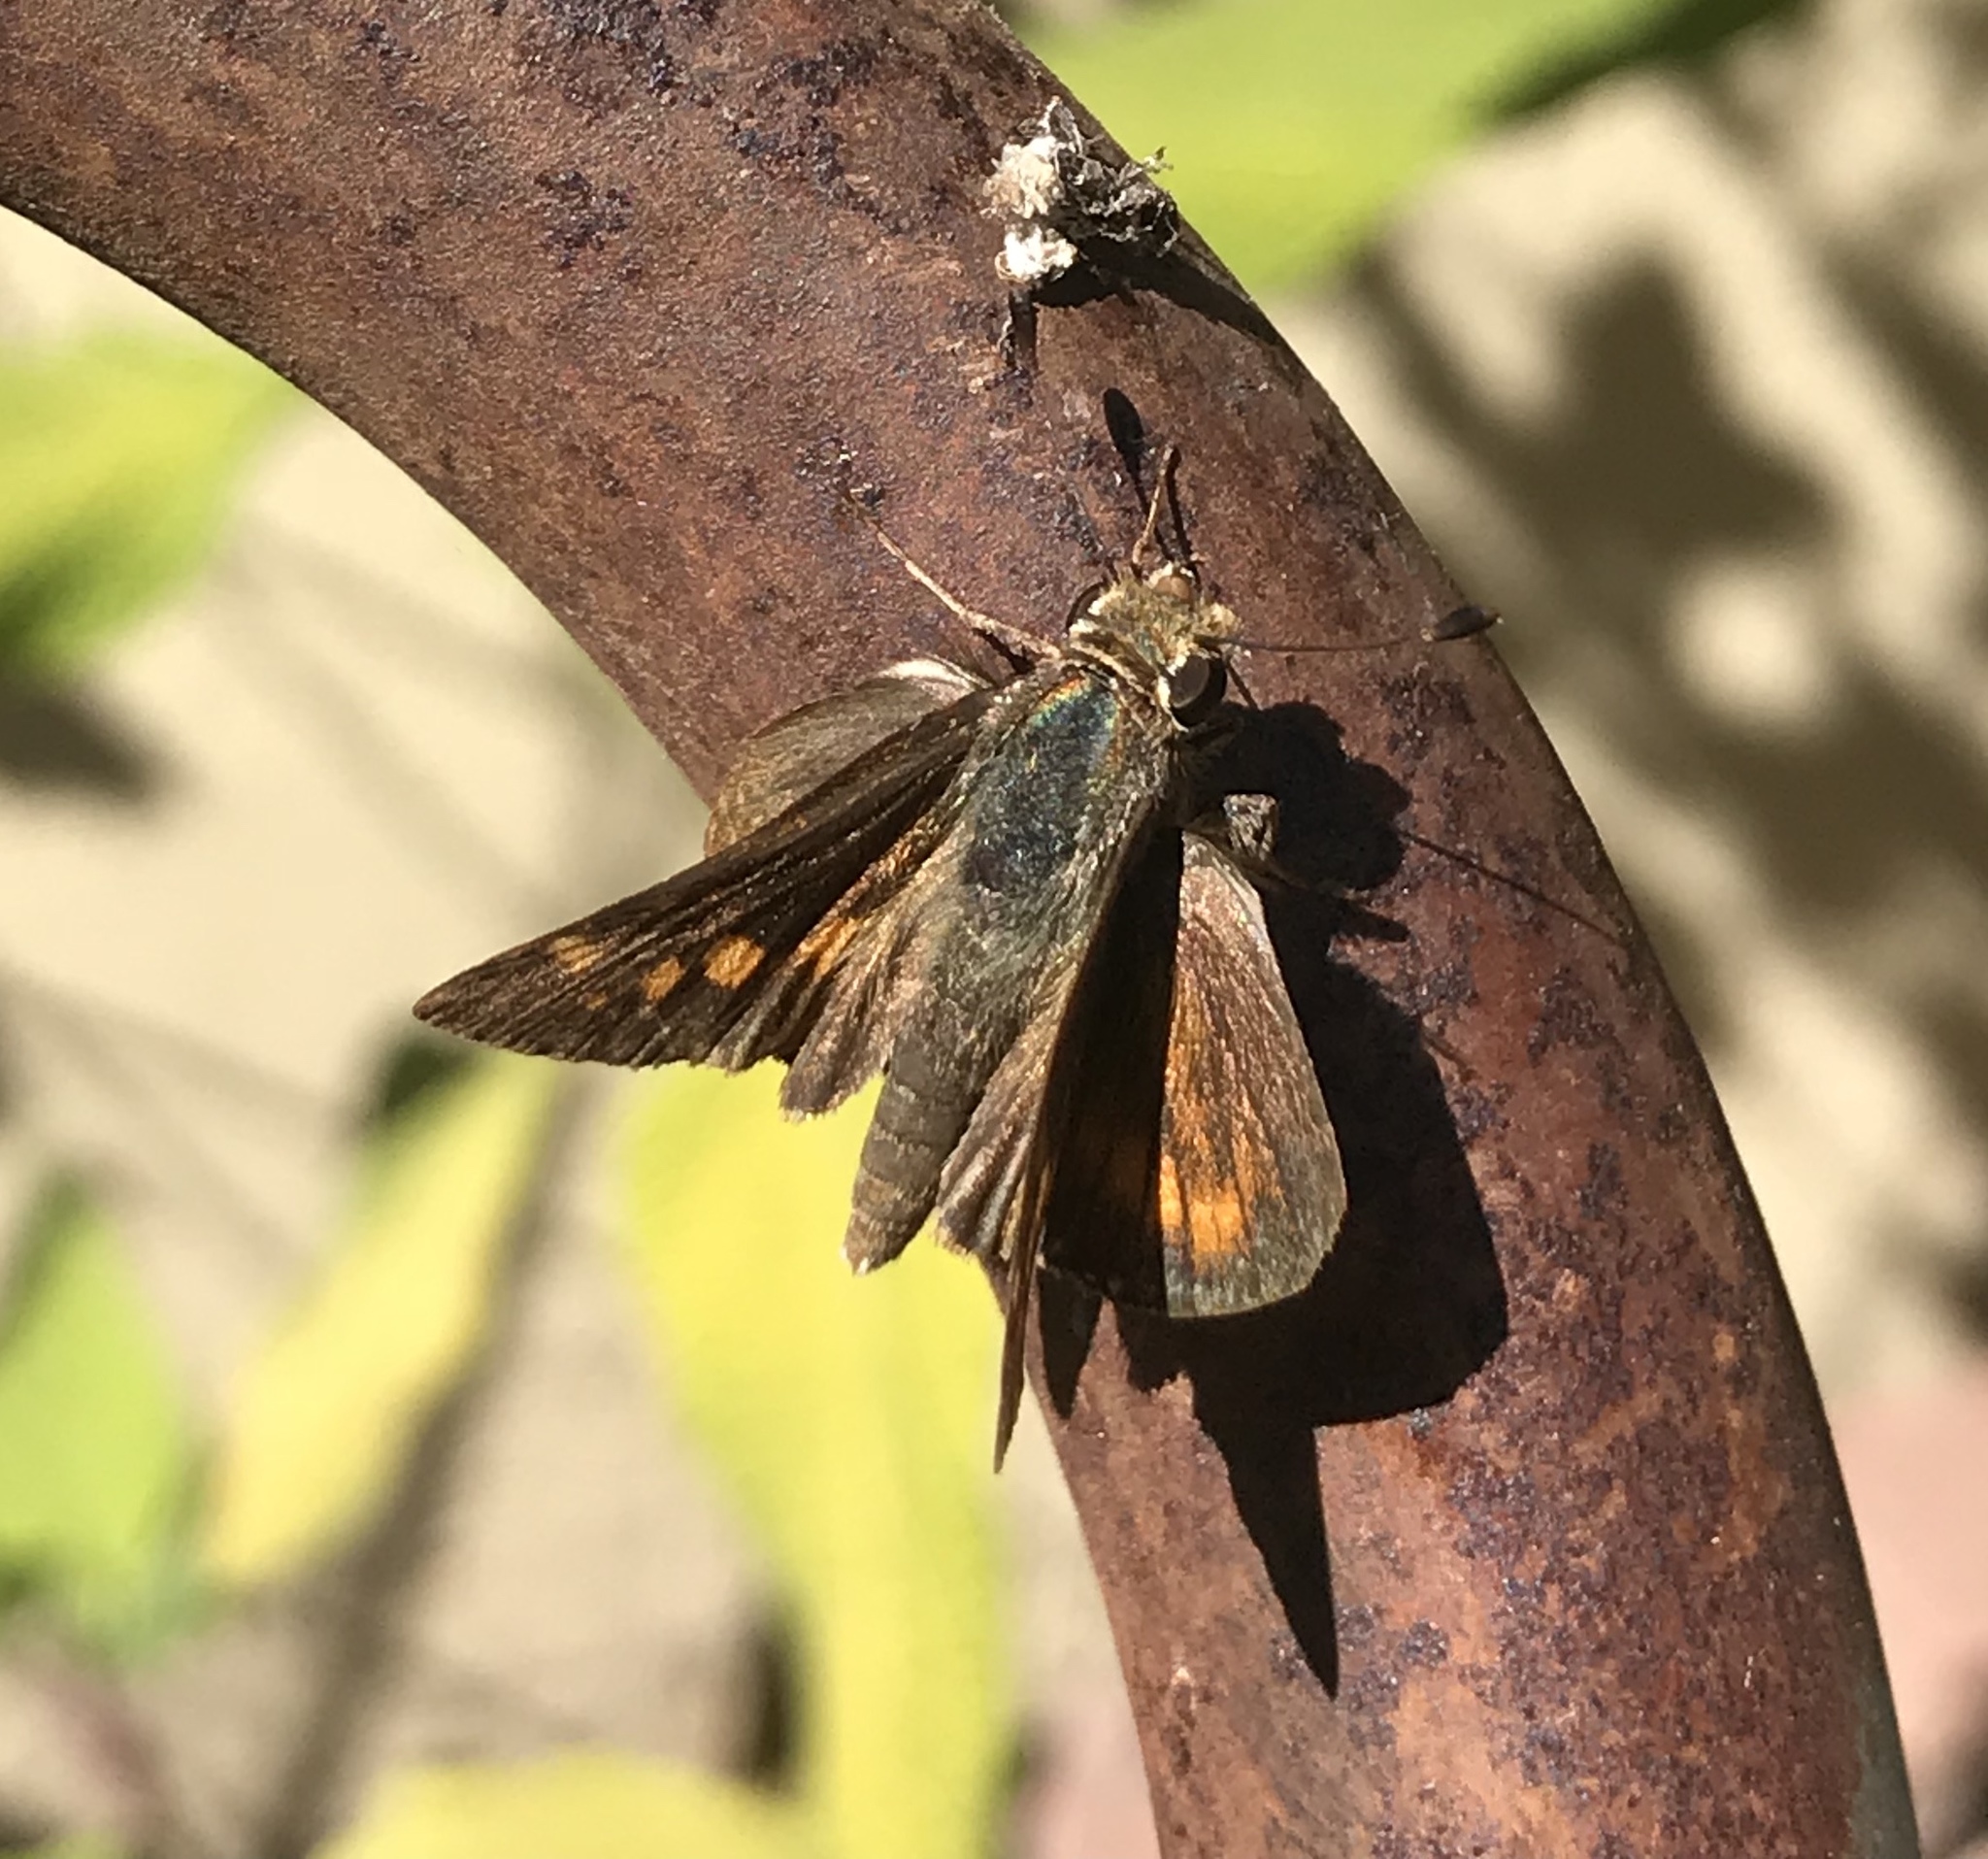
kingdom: Animalia
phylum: Arthropoda
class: Insecta
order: Lepidoptera
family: Hesperiidae
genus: Lon
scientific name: Lon melane
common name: Umber skipper
